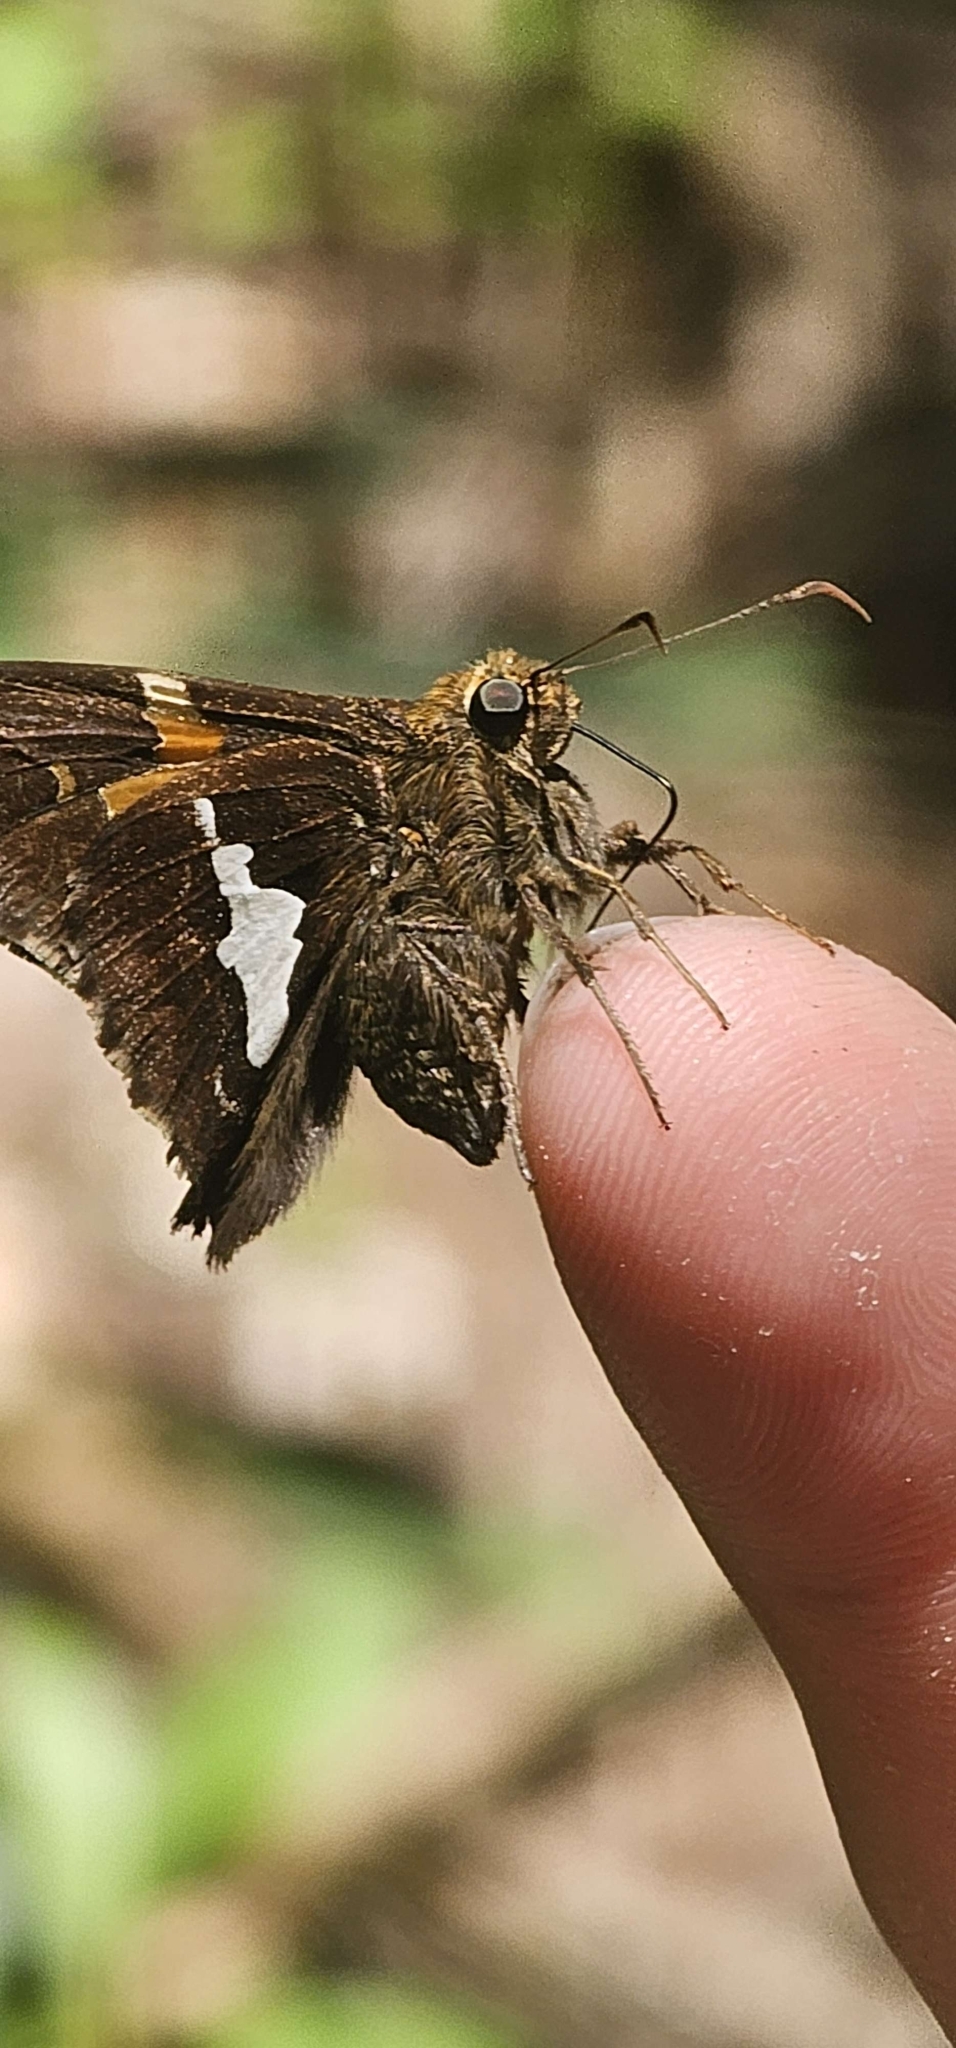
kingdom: Animalia
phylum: Arthropoda
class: Insecta
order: Lepidoptera
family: Hesperiidae
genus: Epargyreus
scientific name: Epargyreus clarus
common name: Silver-spotted skipper
